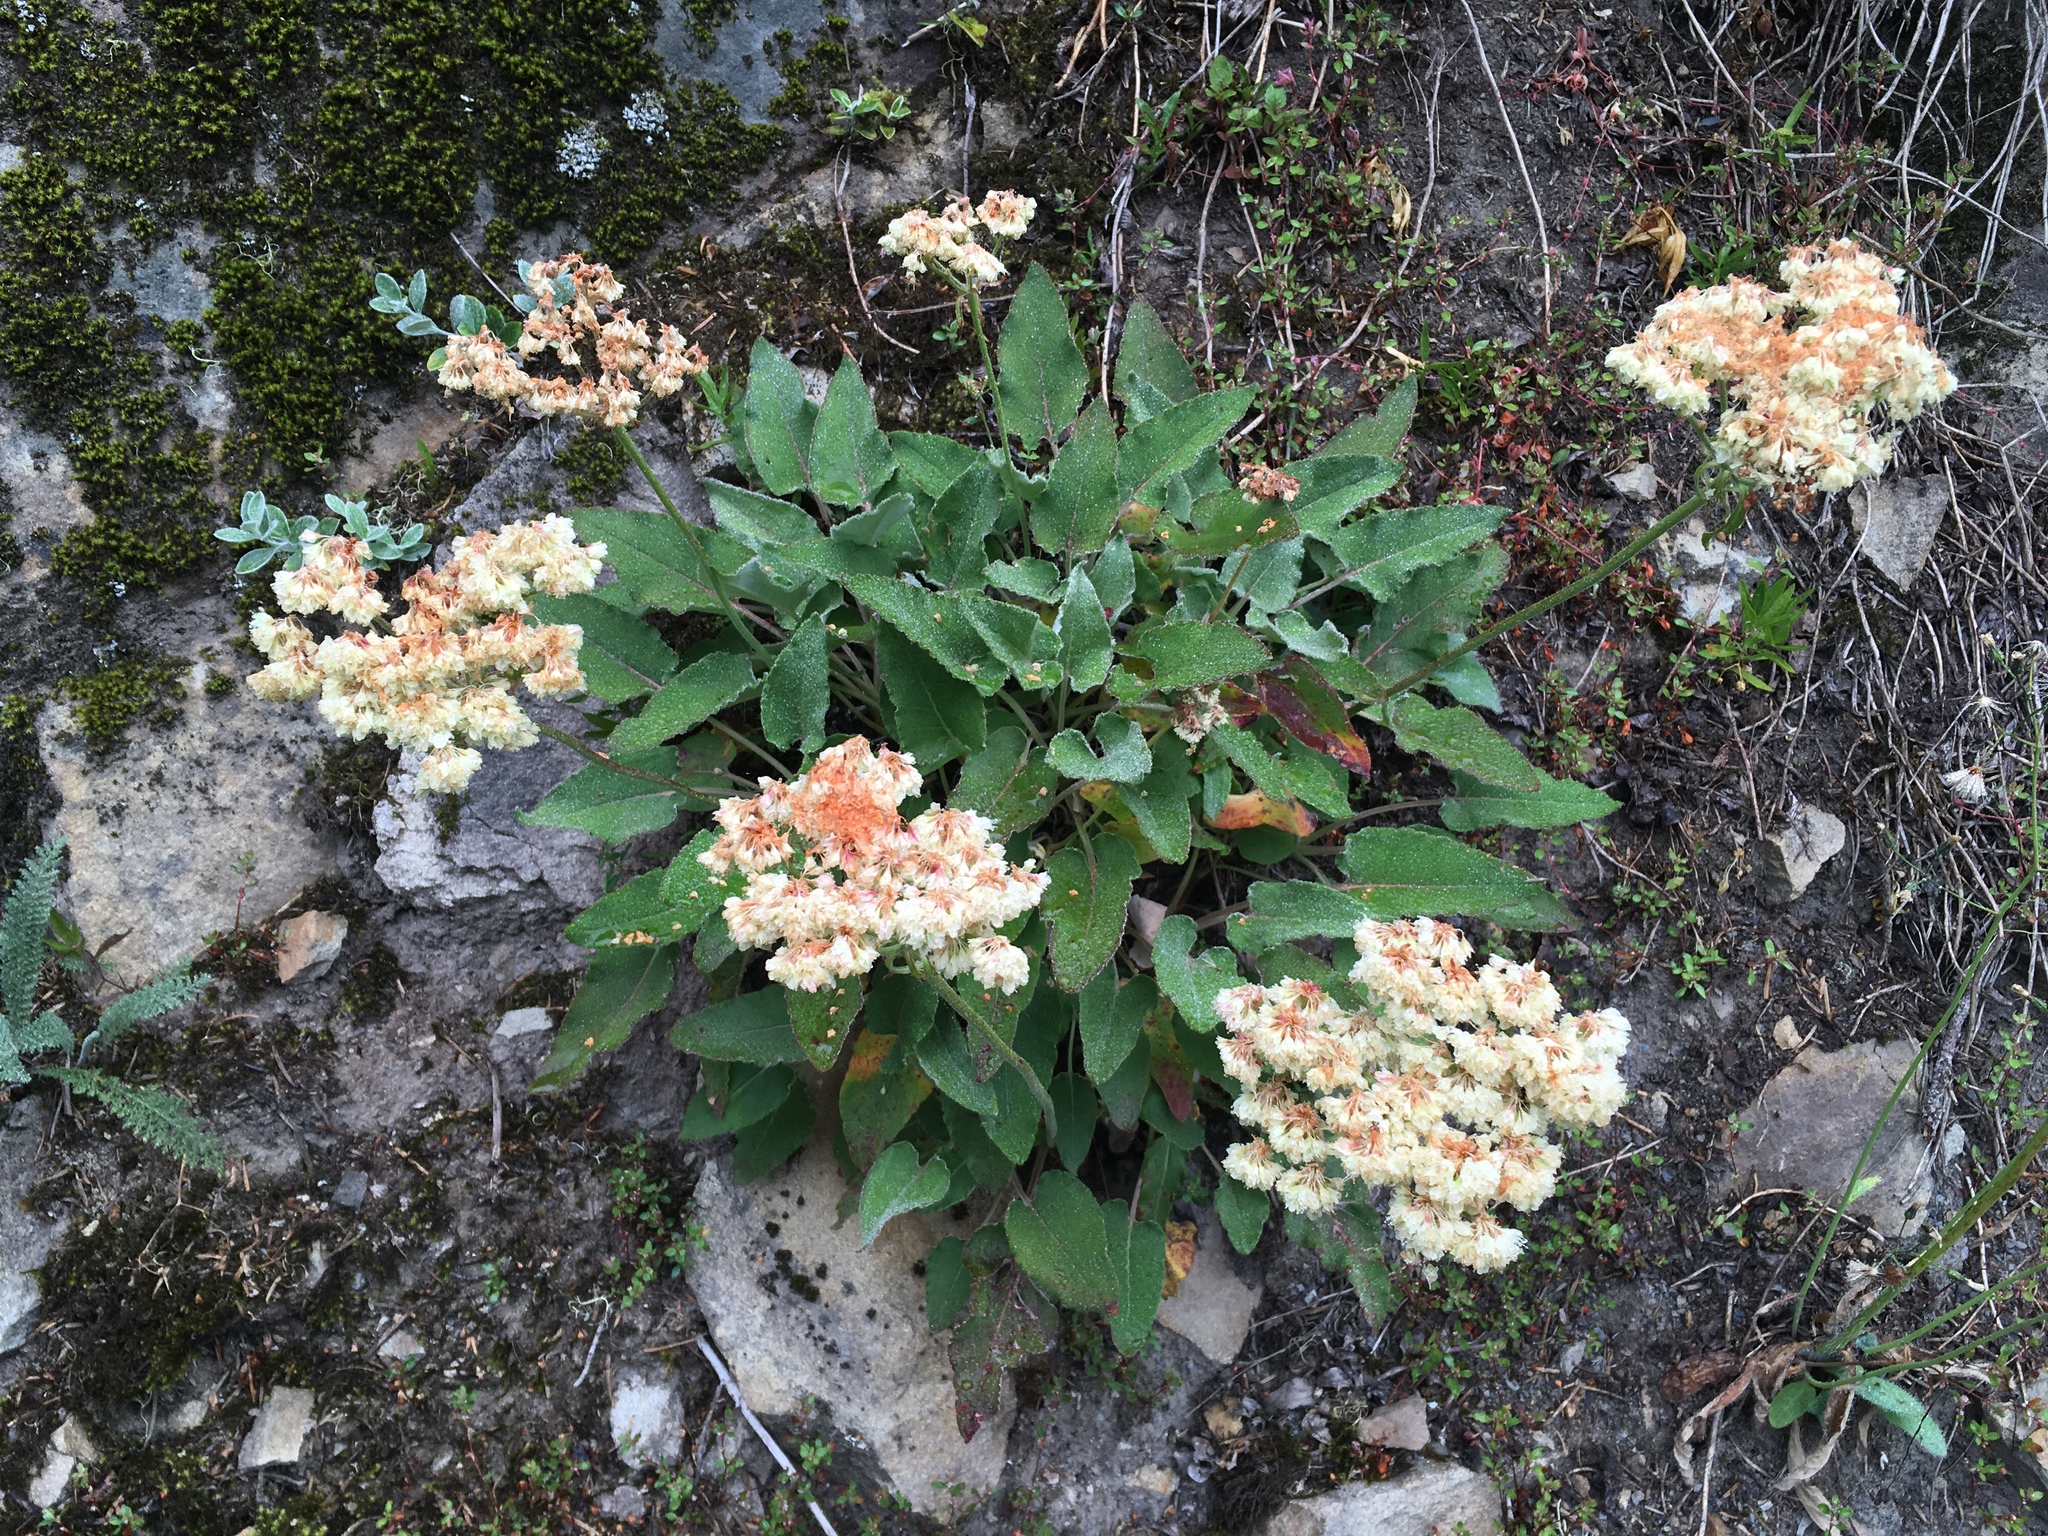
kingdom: Plantae
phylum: Tracheophyta
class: Magnoliopsida
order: Caryophyllales
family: Polygonaceae
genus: Eriogonum
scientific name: Eriogonum compositum
